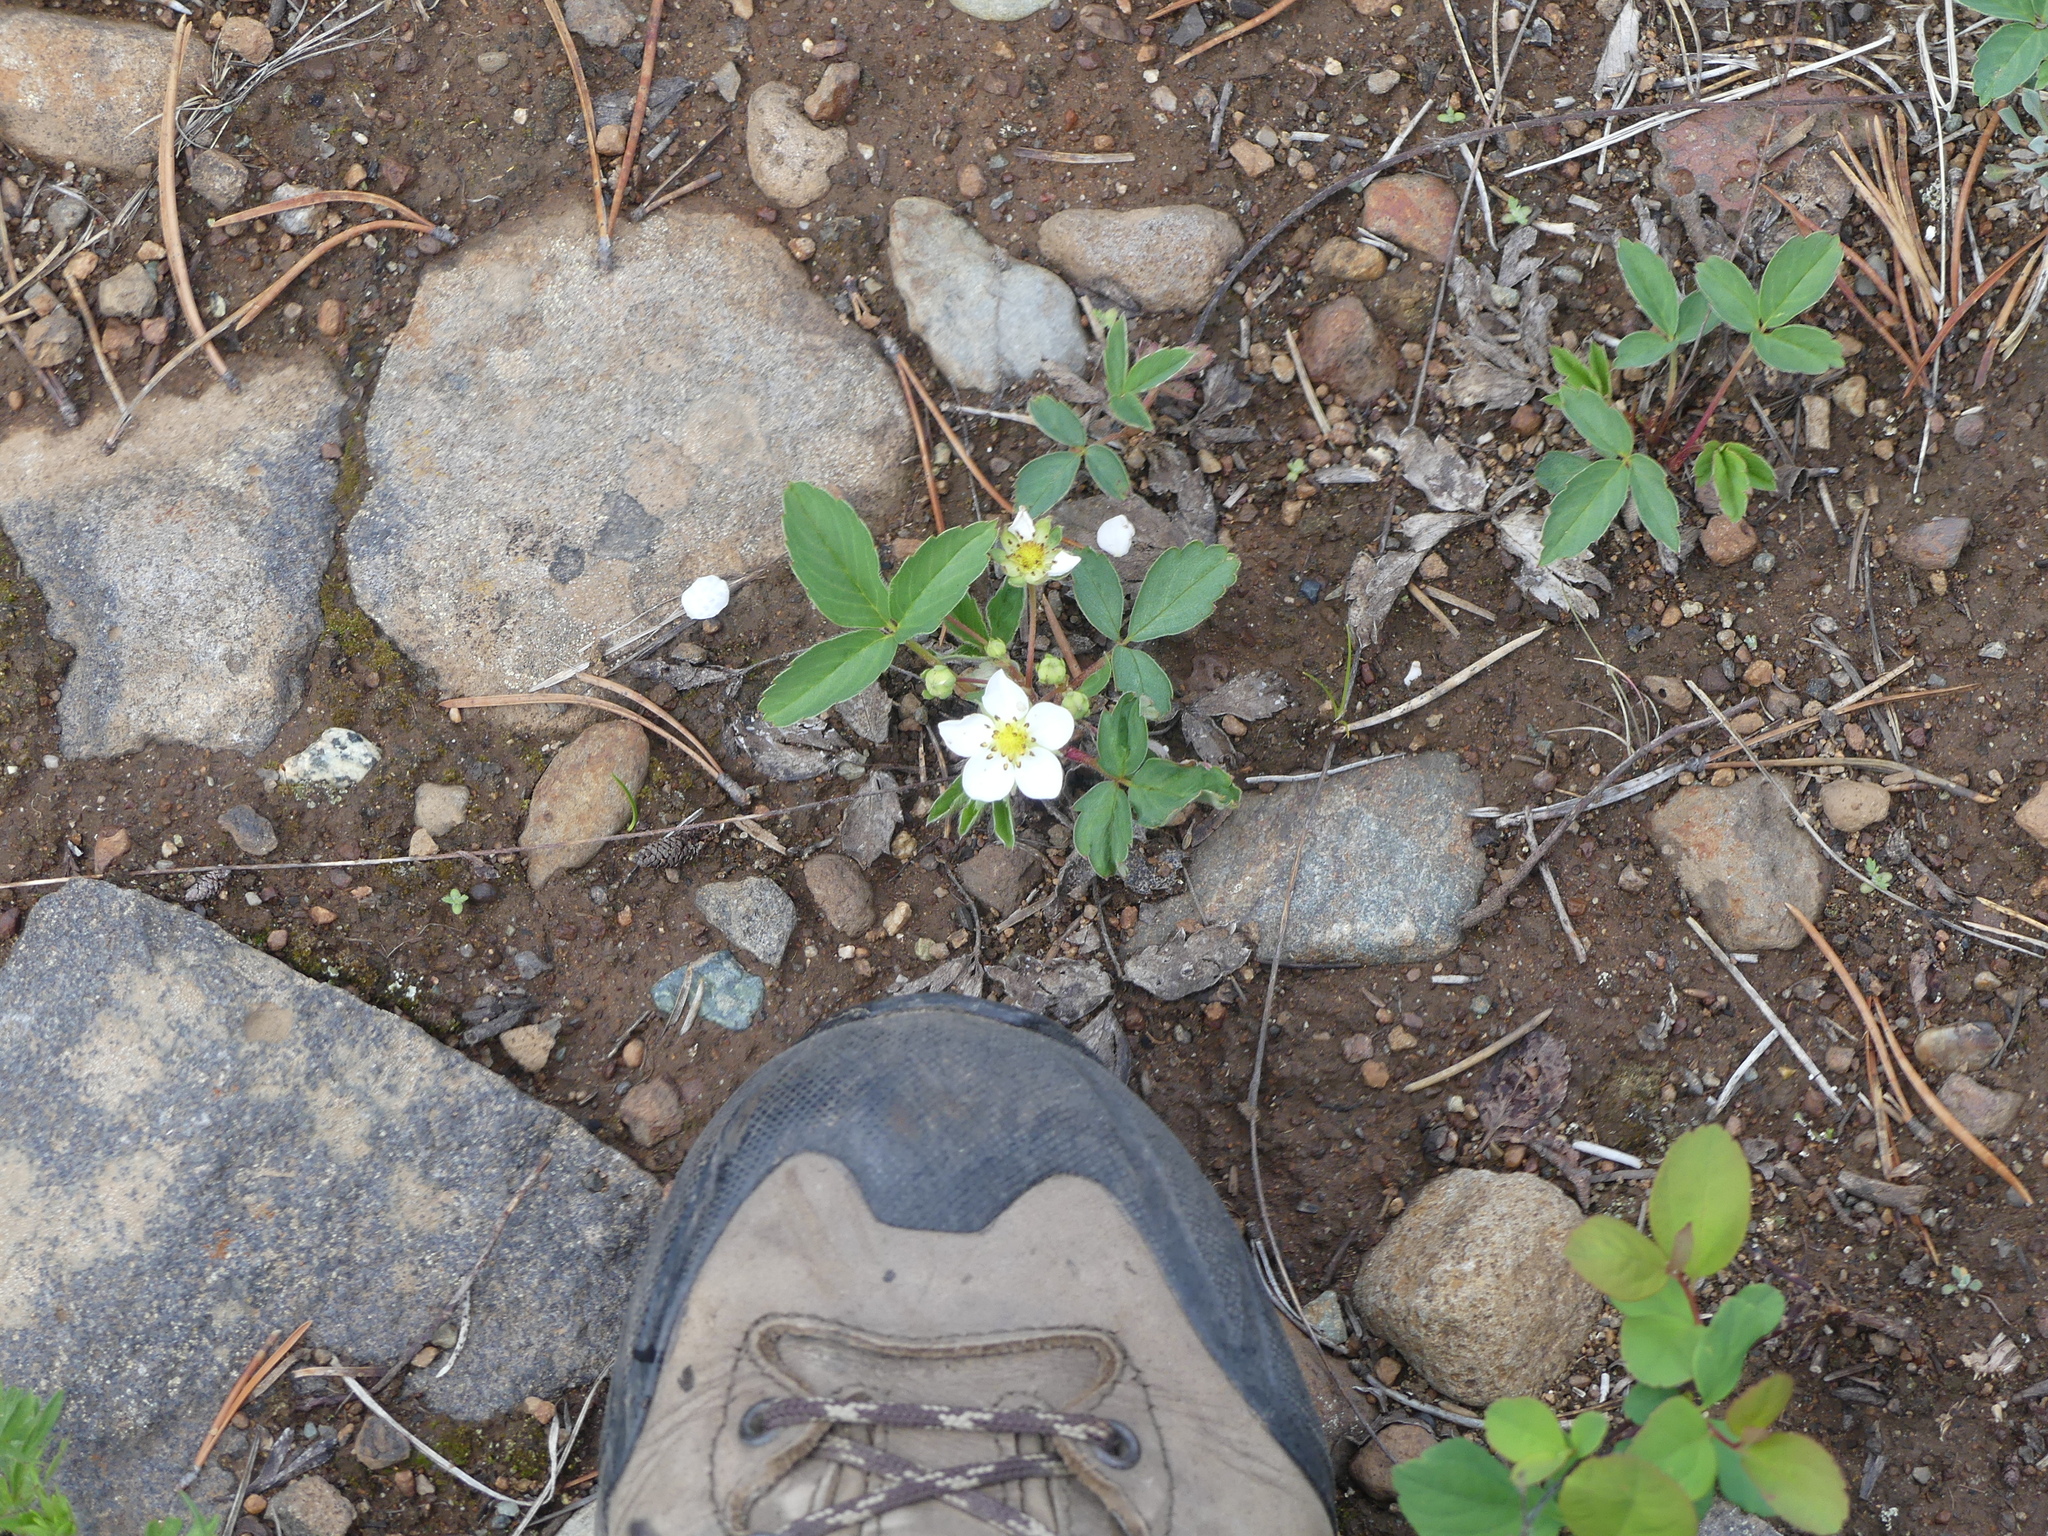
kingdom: Plantae
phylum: Tracheophyta
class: Magnoliopsida
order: Rosales
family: Rosaceae
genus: Fragaria
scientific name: Fragaria virginiana
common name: Thickleaved wild strawberry
